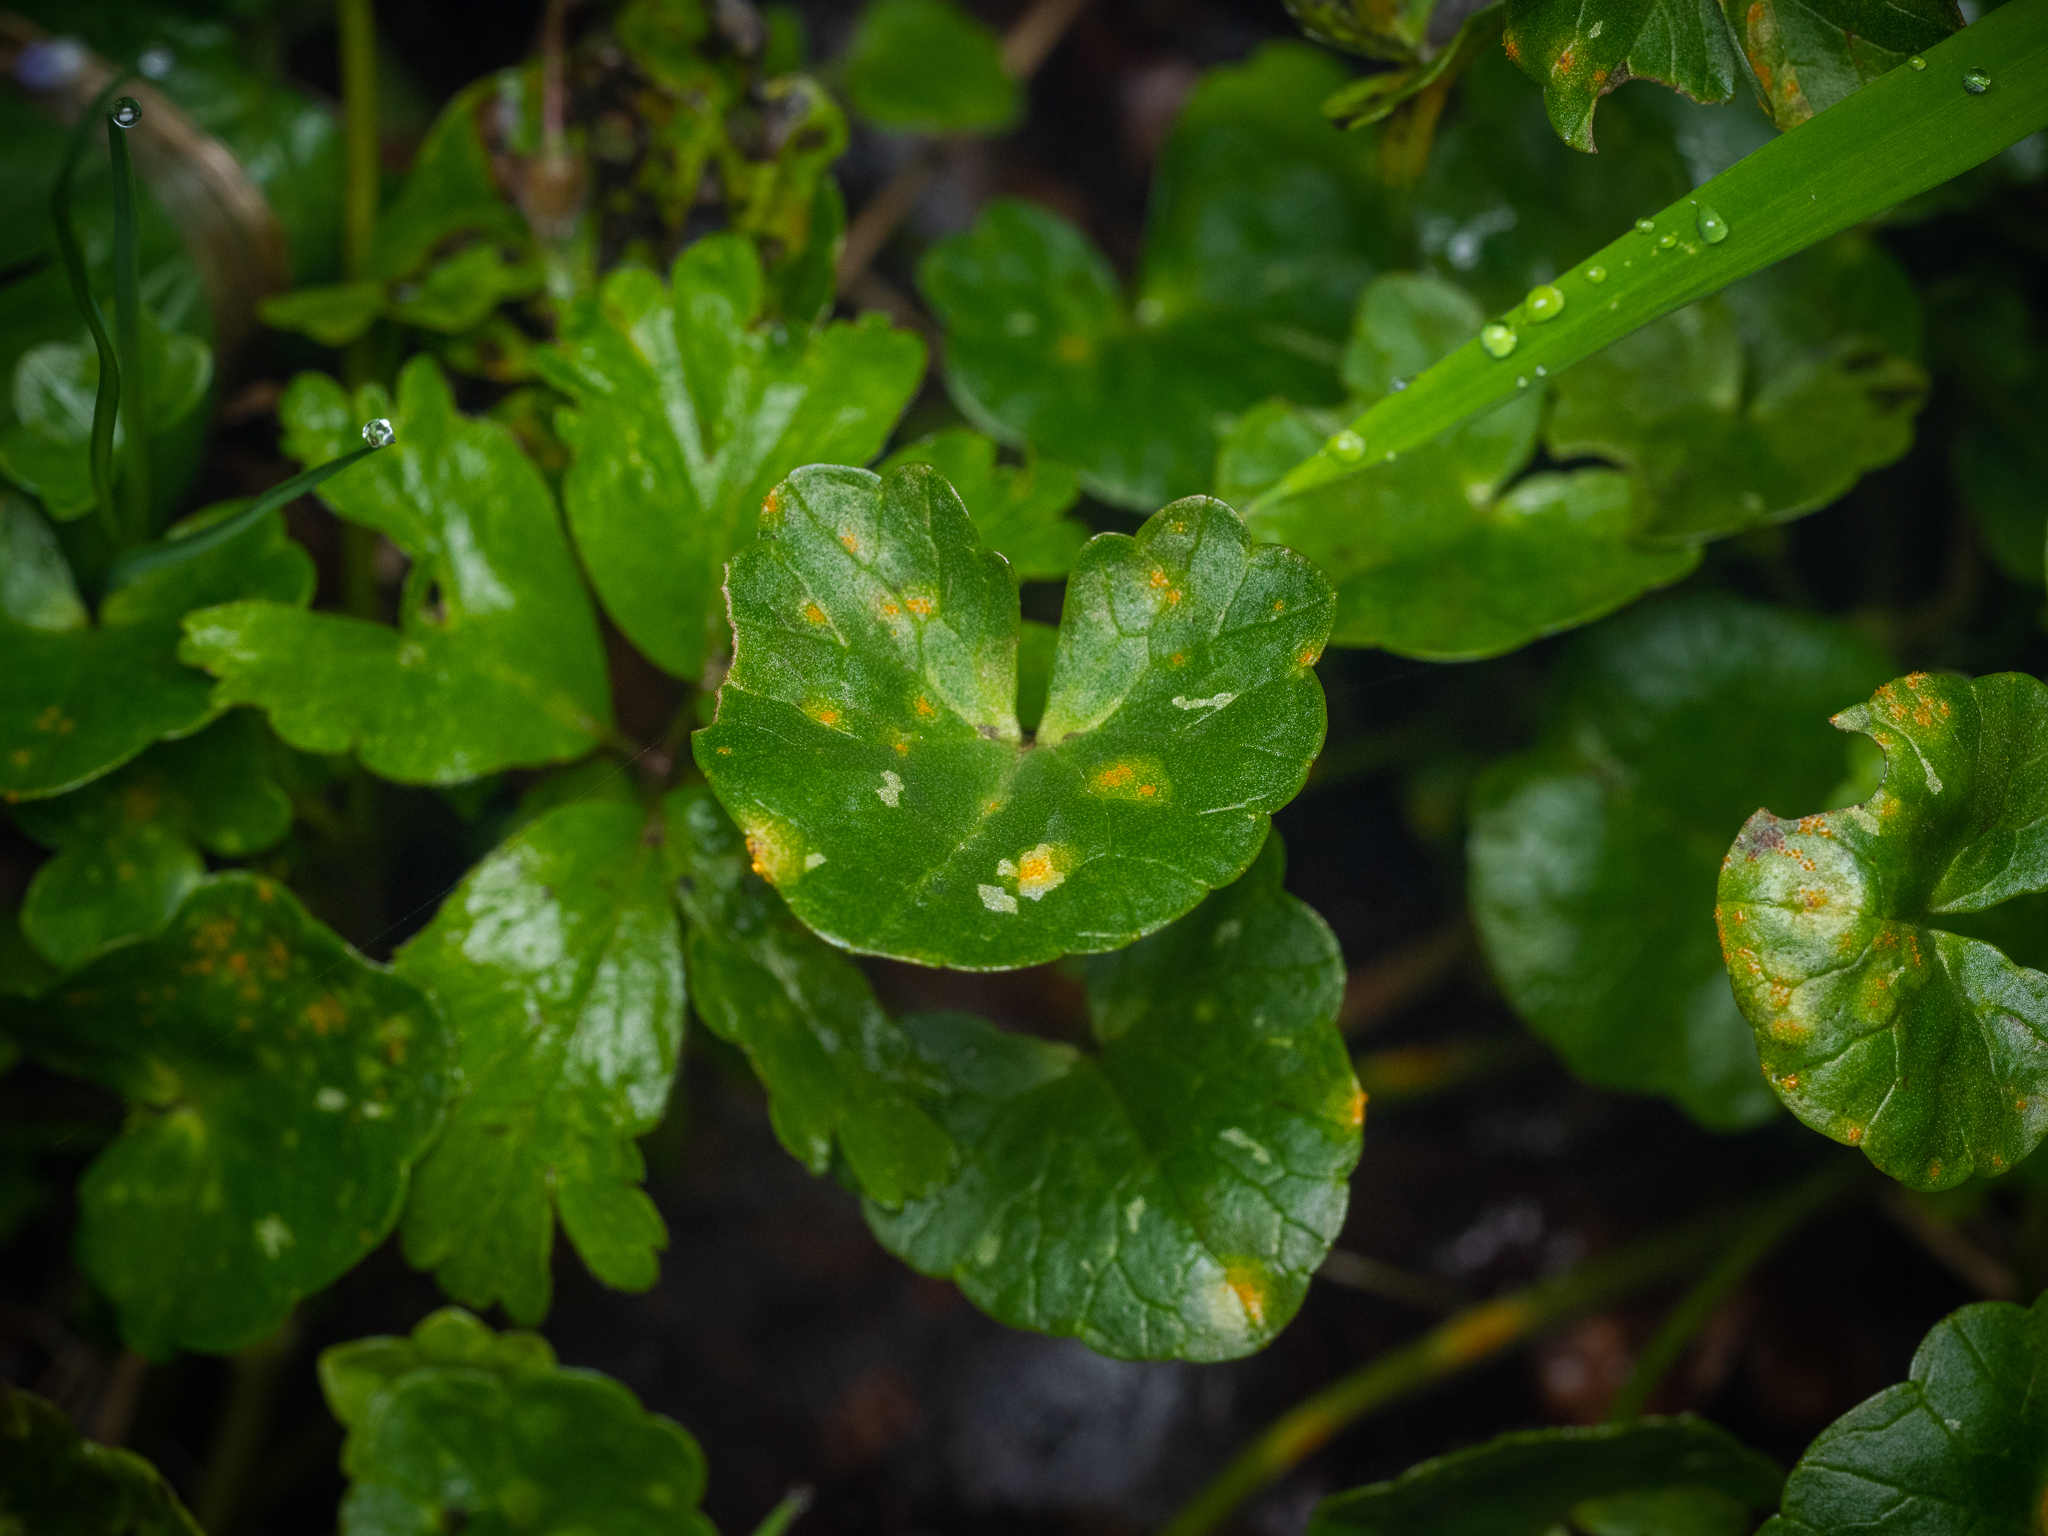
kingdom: Plantae
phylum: Tracheophyta
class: Magnoliopsida
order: Ranunculales
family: Ranunculaceae
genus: Ficaria
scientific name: Ficaria verna
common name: Lesser celandine
